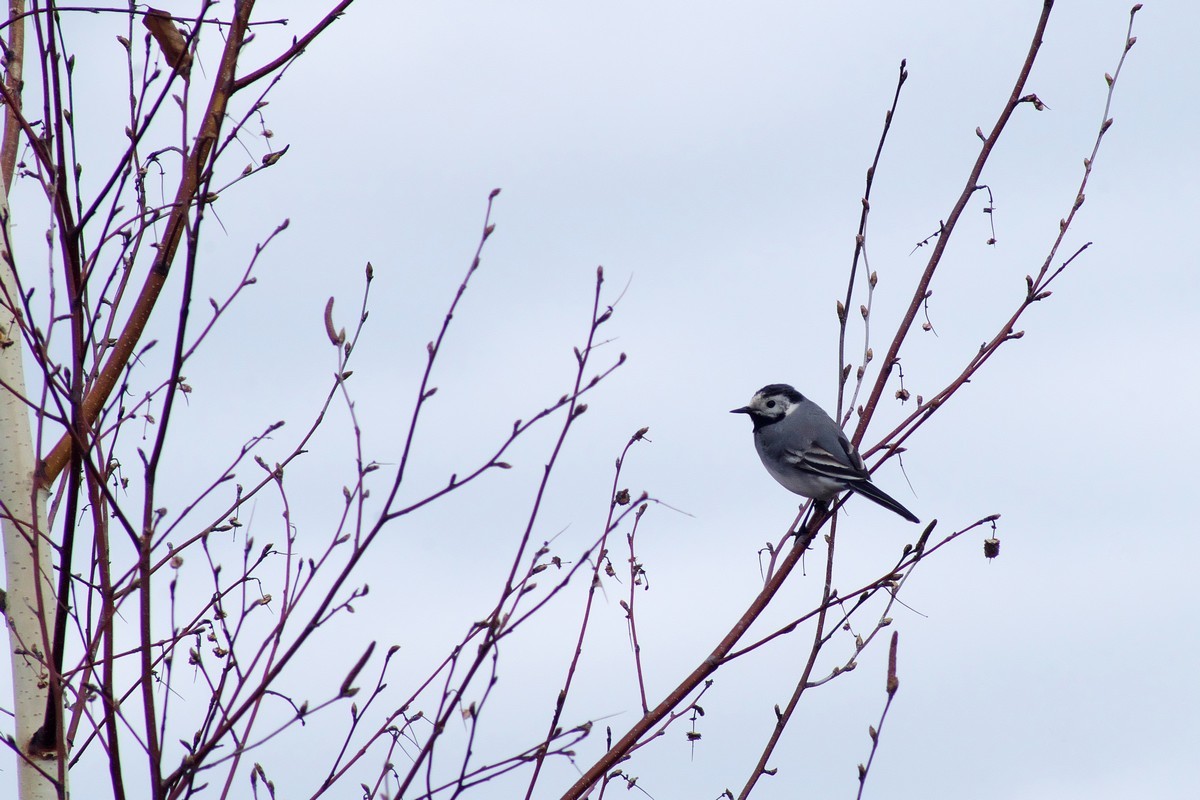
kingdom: Animalia
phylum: Chordata
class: Aves
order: Passeriformes
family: Motacillidae
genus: Motacilla
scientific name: Motacilla alba
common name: White wagtail
